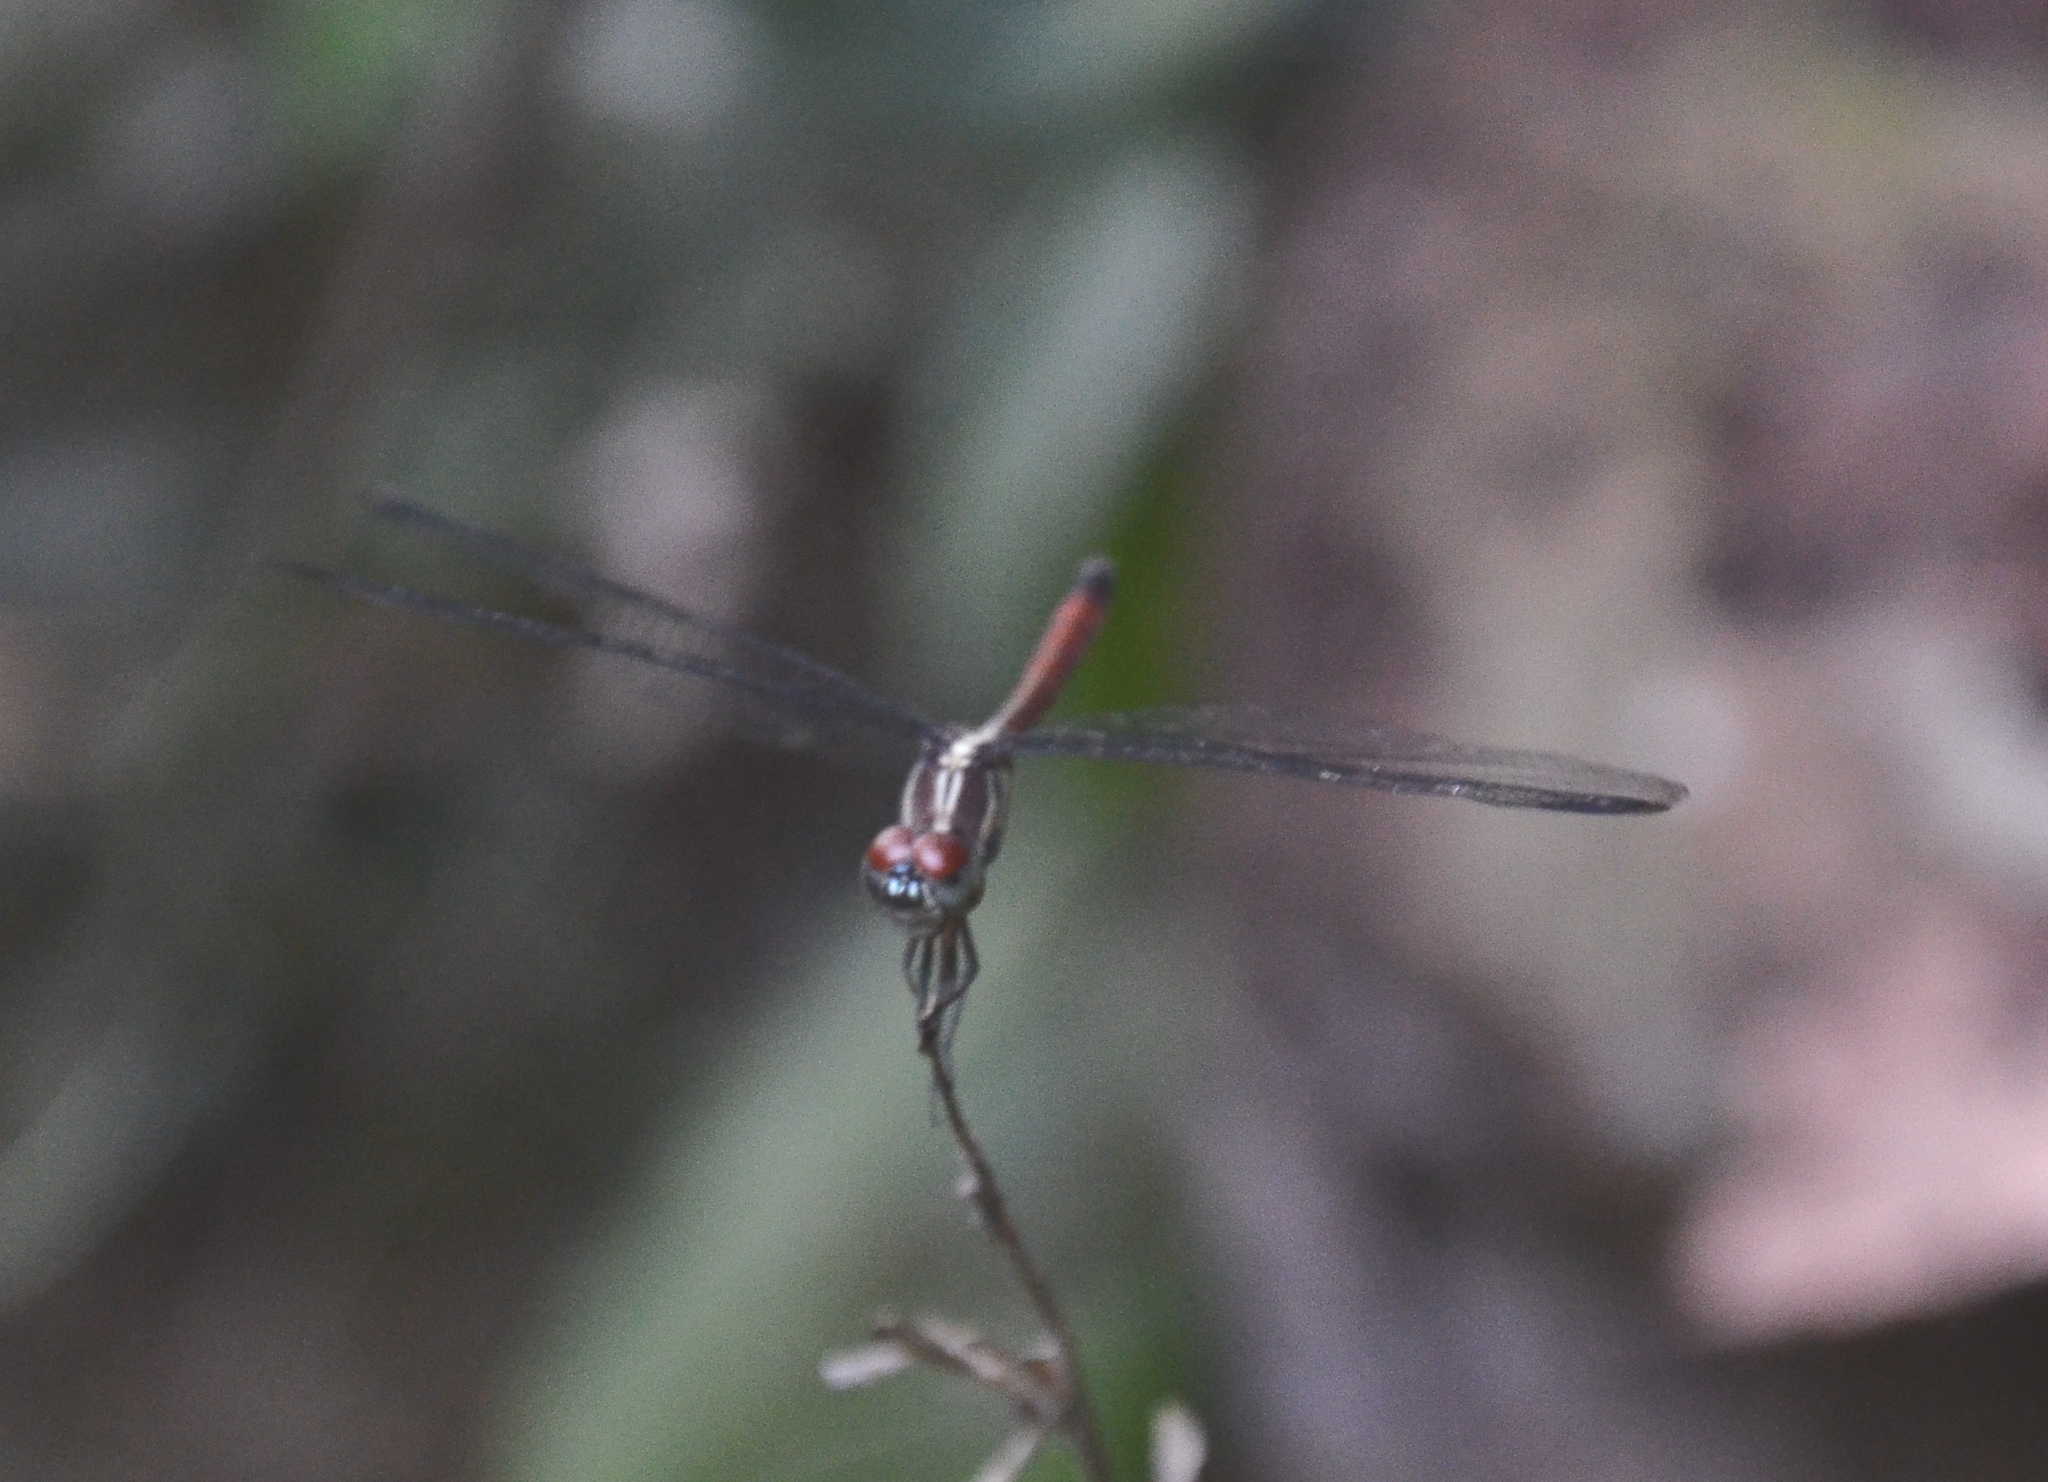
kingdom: Animalia
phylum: Arthropoda
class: Insecta
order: Odonata
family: Libellulidae
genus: Lathrecista
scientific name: Lathrecista asiatica
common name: Scarlet grenadier
